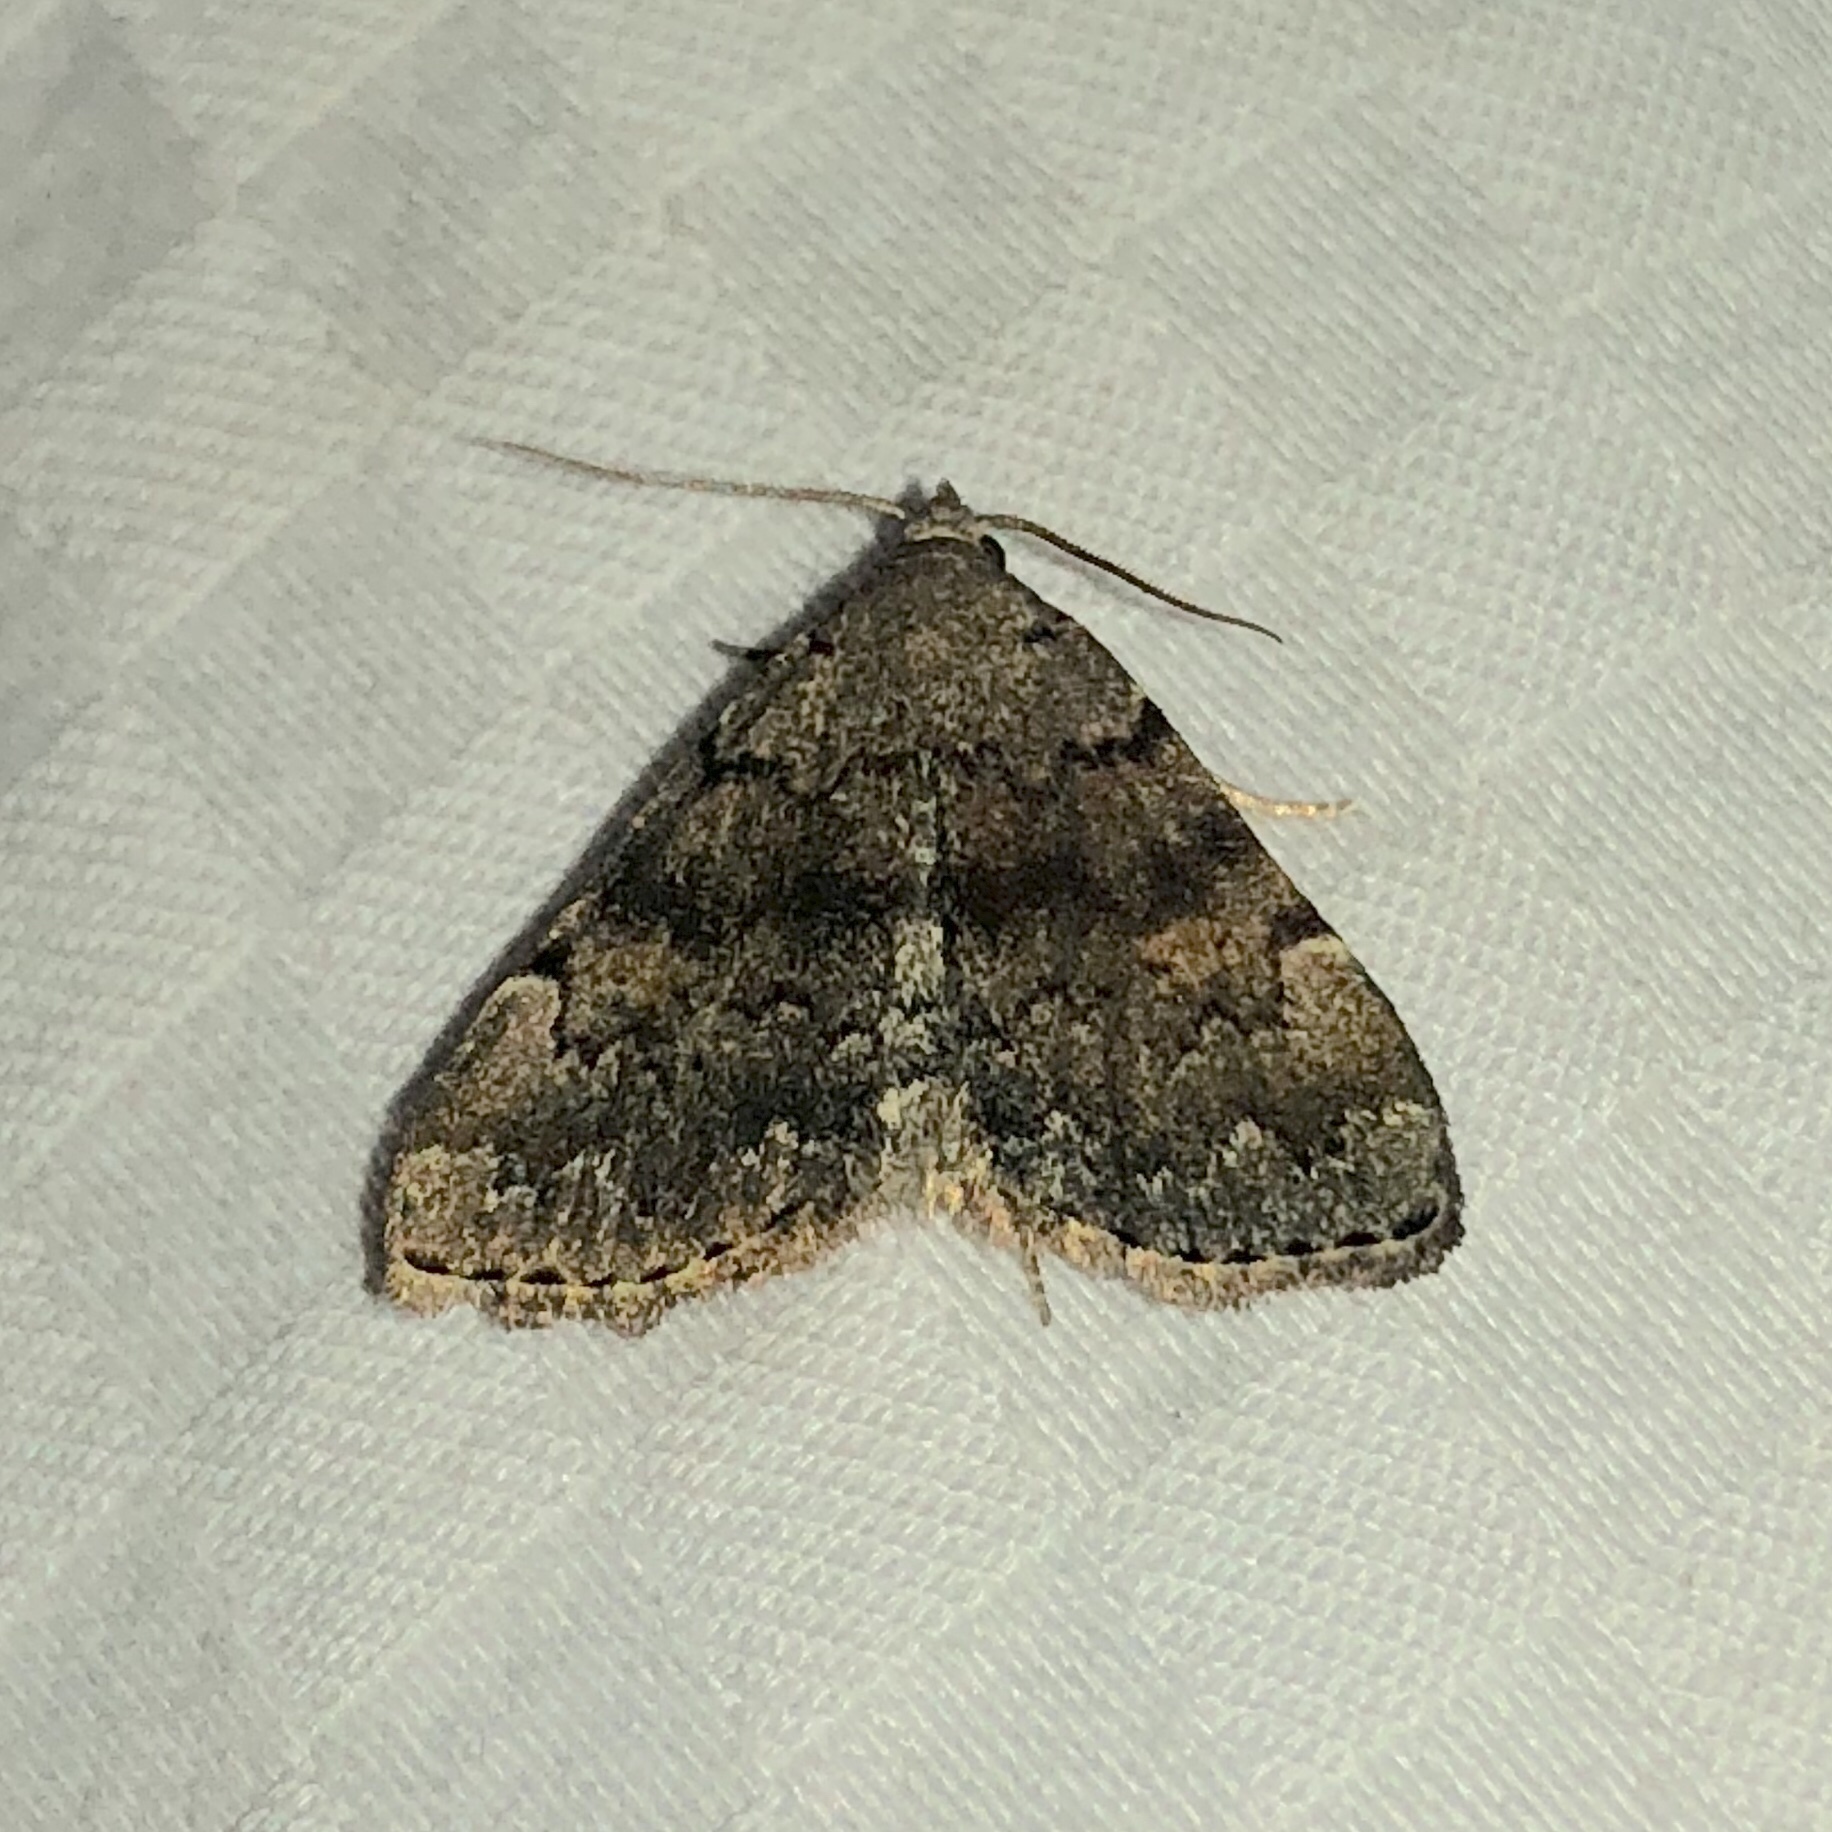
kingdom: Animalia
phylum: Arthropoda
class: Insecta
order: Lepidoptera
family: Erebidae
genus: Idia
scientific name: Idia aemula
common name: Common idia moth
